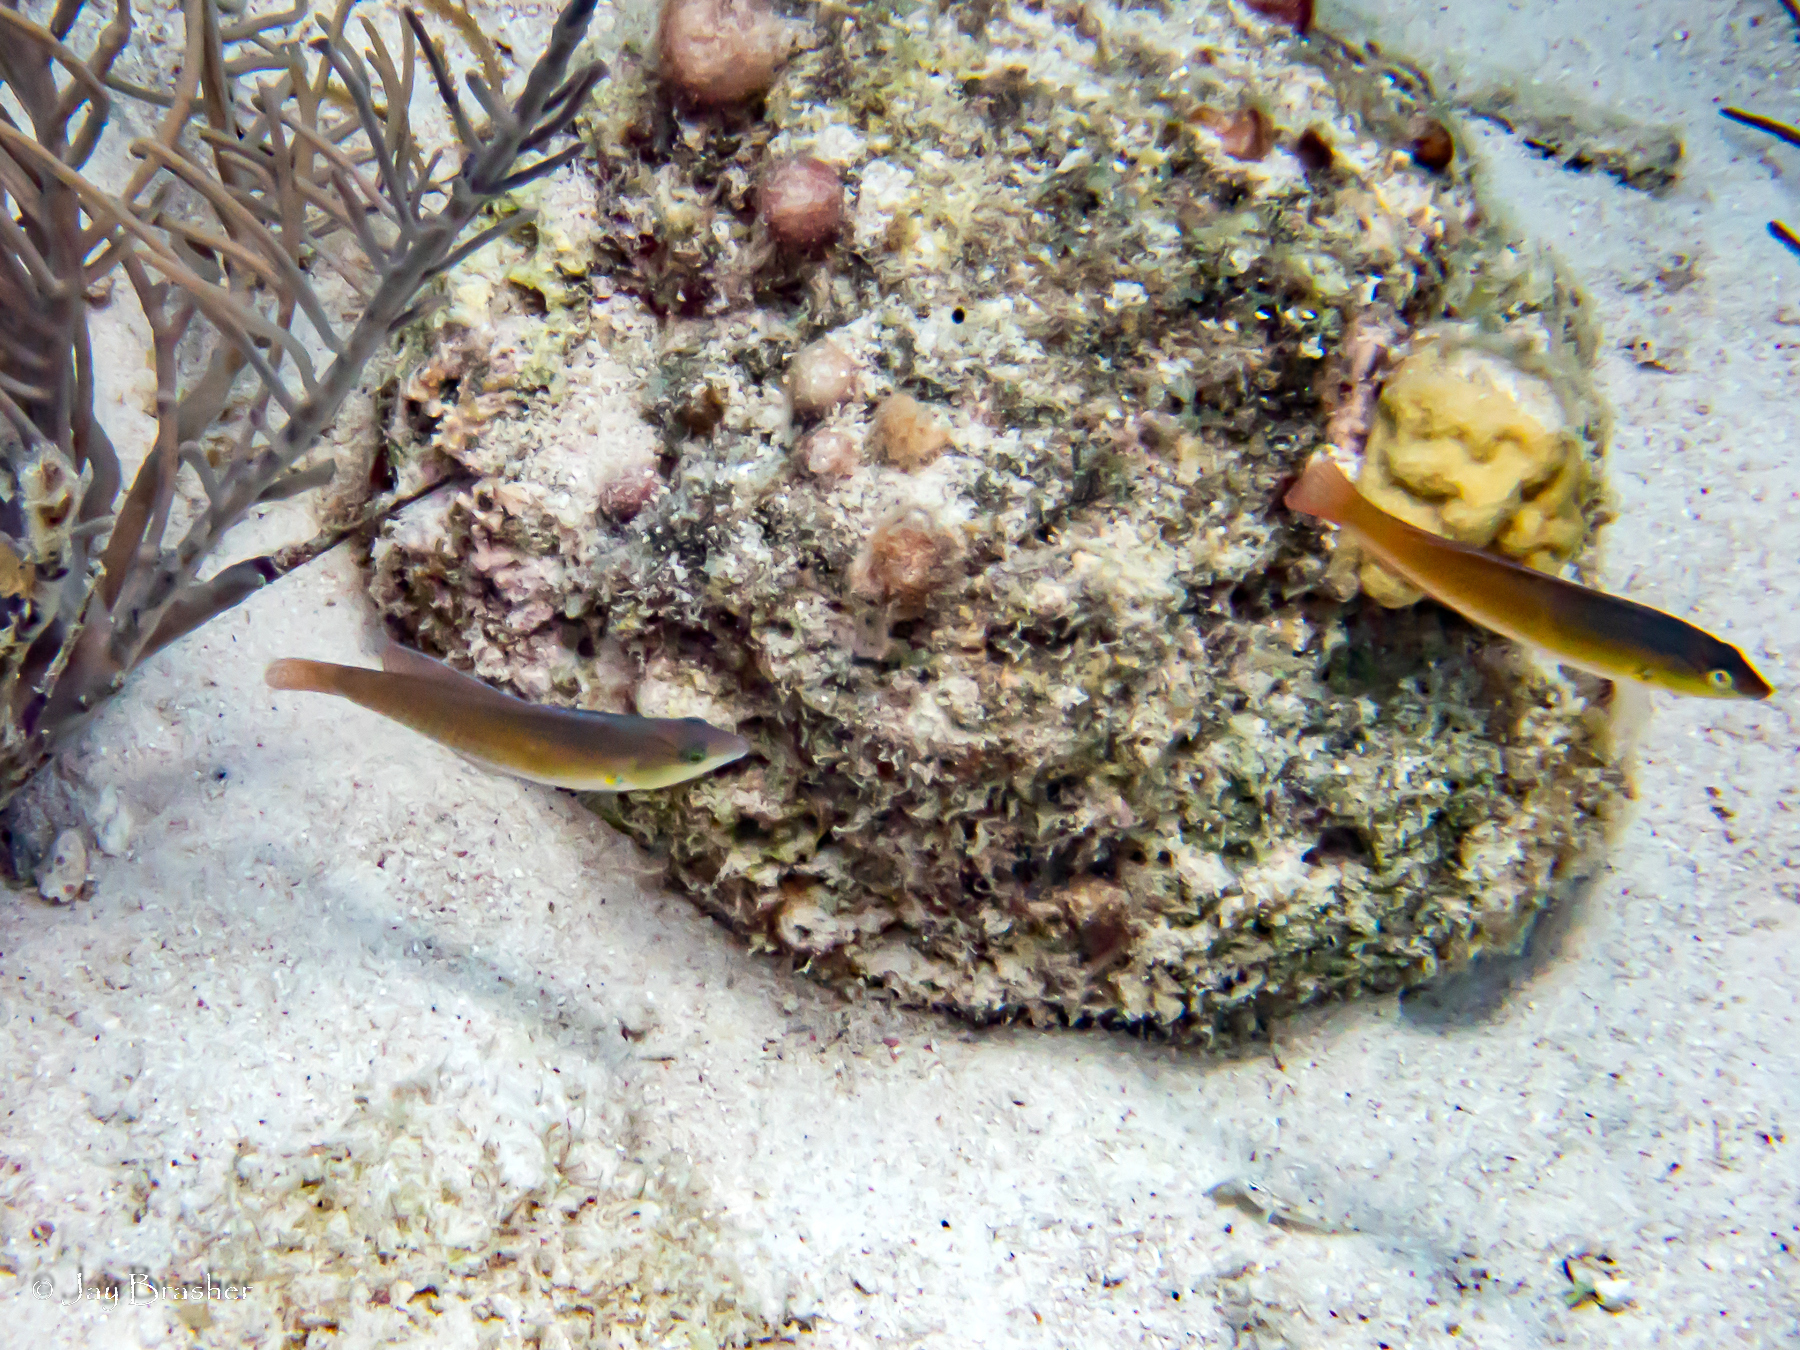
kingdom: Animalia
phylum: Chordata
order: Perciformes
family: Labridae
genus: Halichoeres
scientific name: Halichoeres garnoti
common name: Yellowhead wrasse
